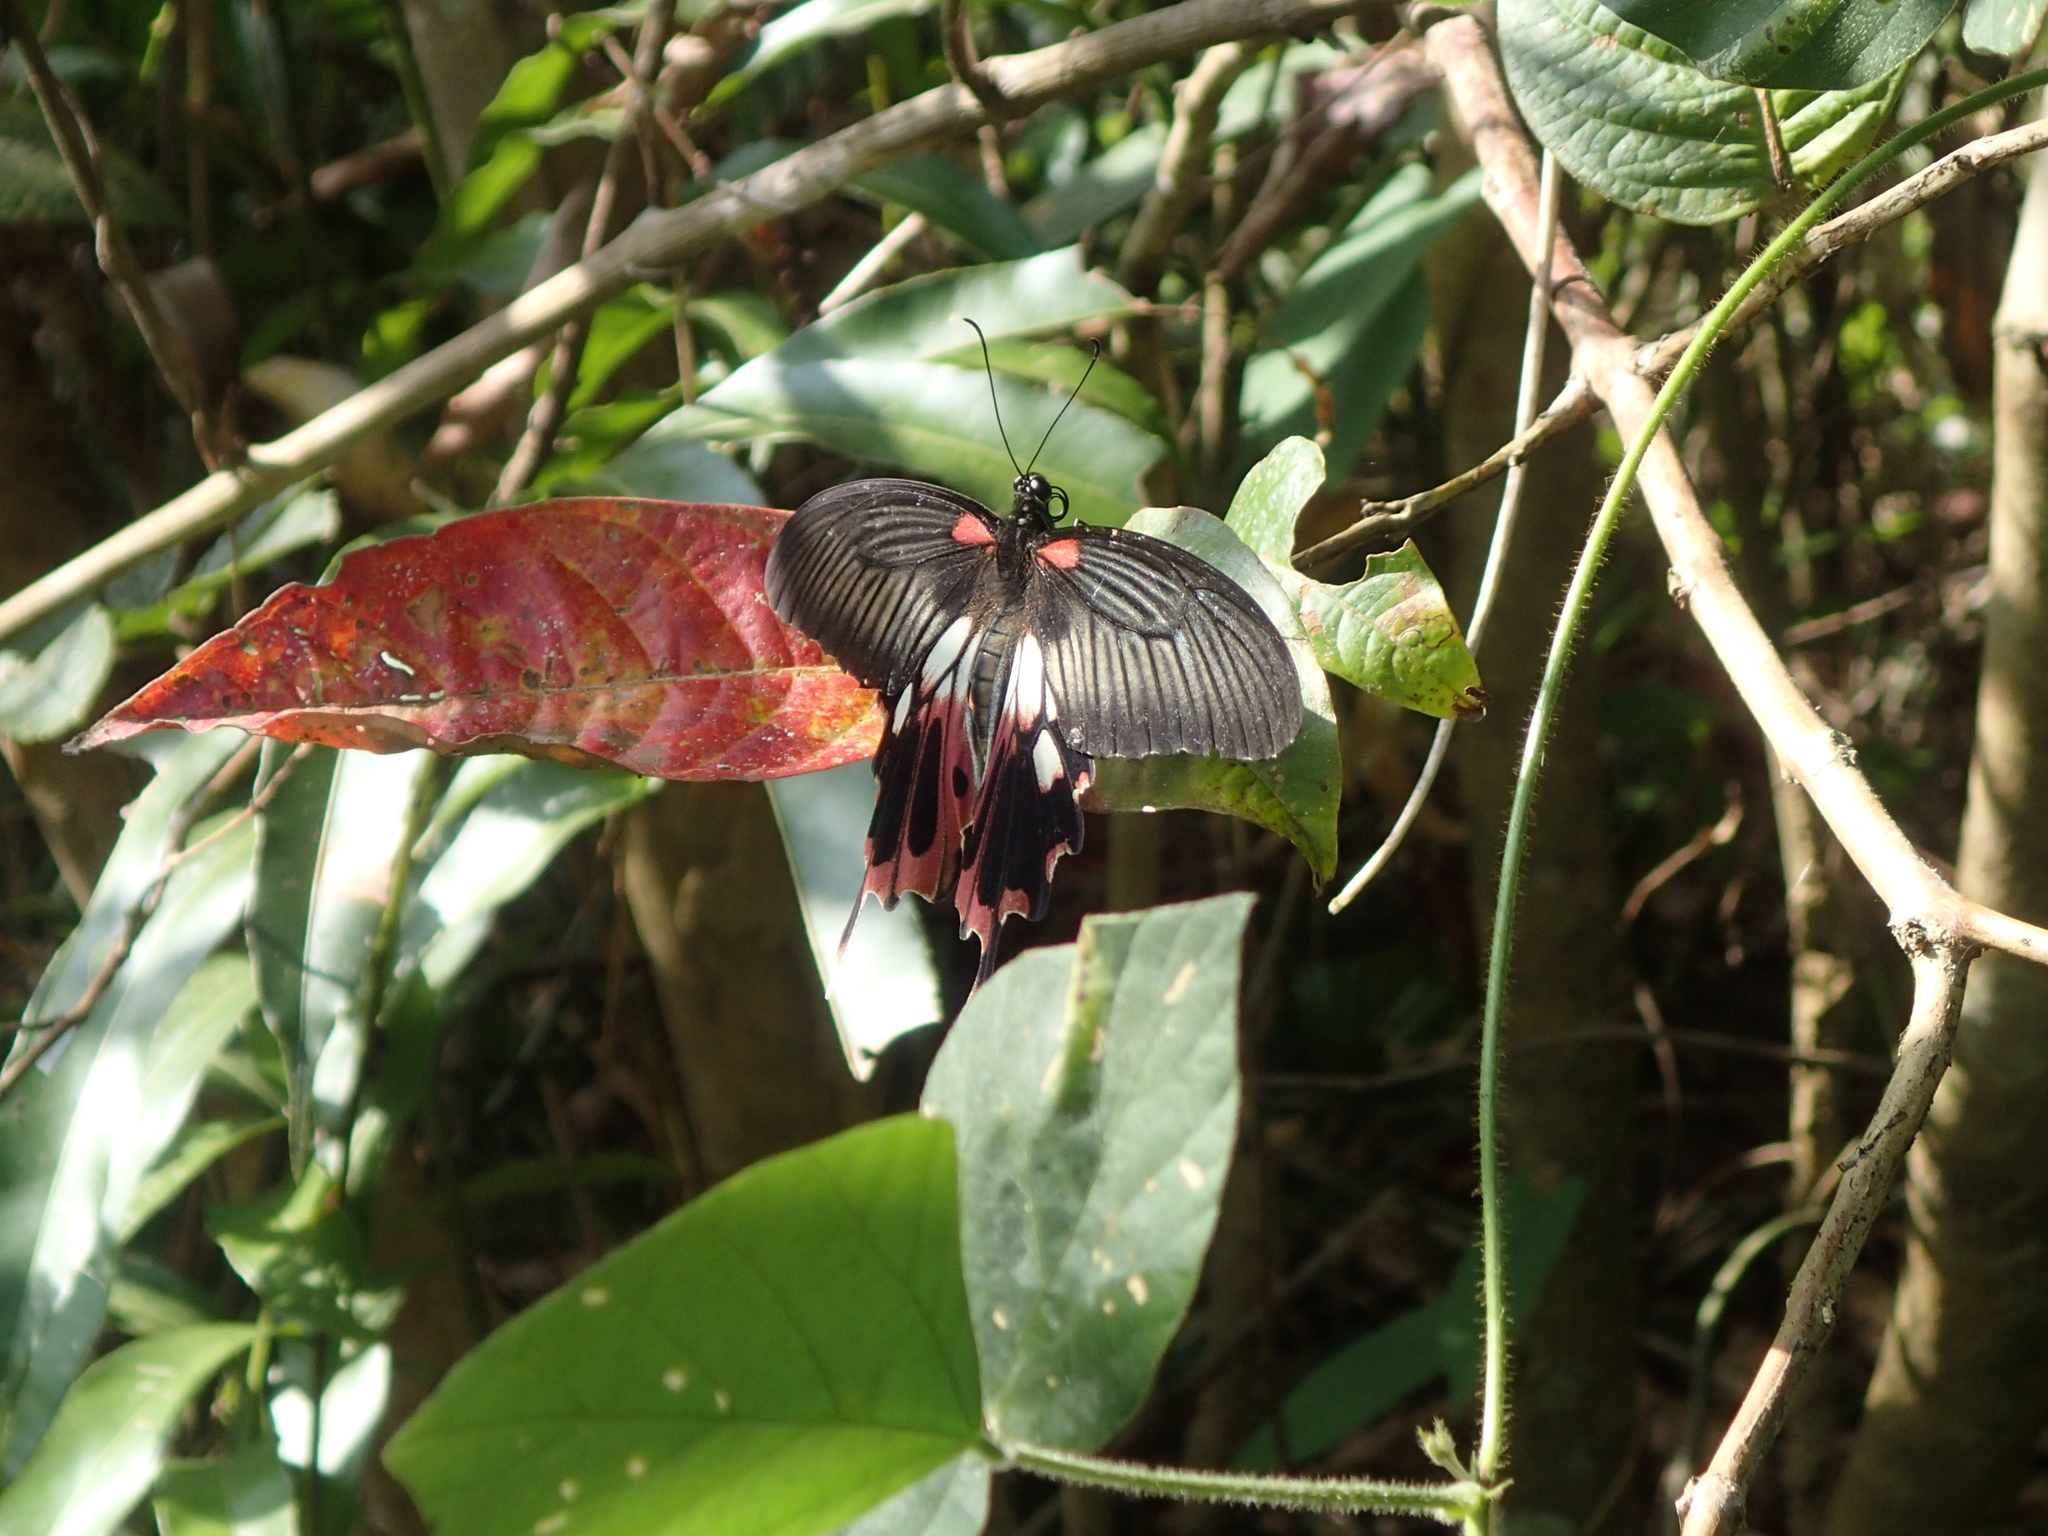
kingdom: Animalia
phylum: Arthropoda
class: Insecta
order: Lepidoptera
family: Papilionidae
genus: Papilio
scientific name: Papilio memnon
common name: Great mormon
